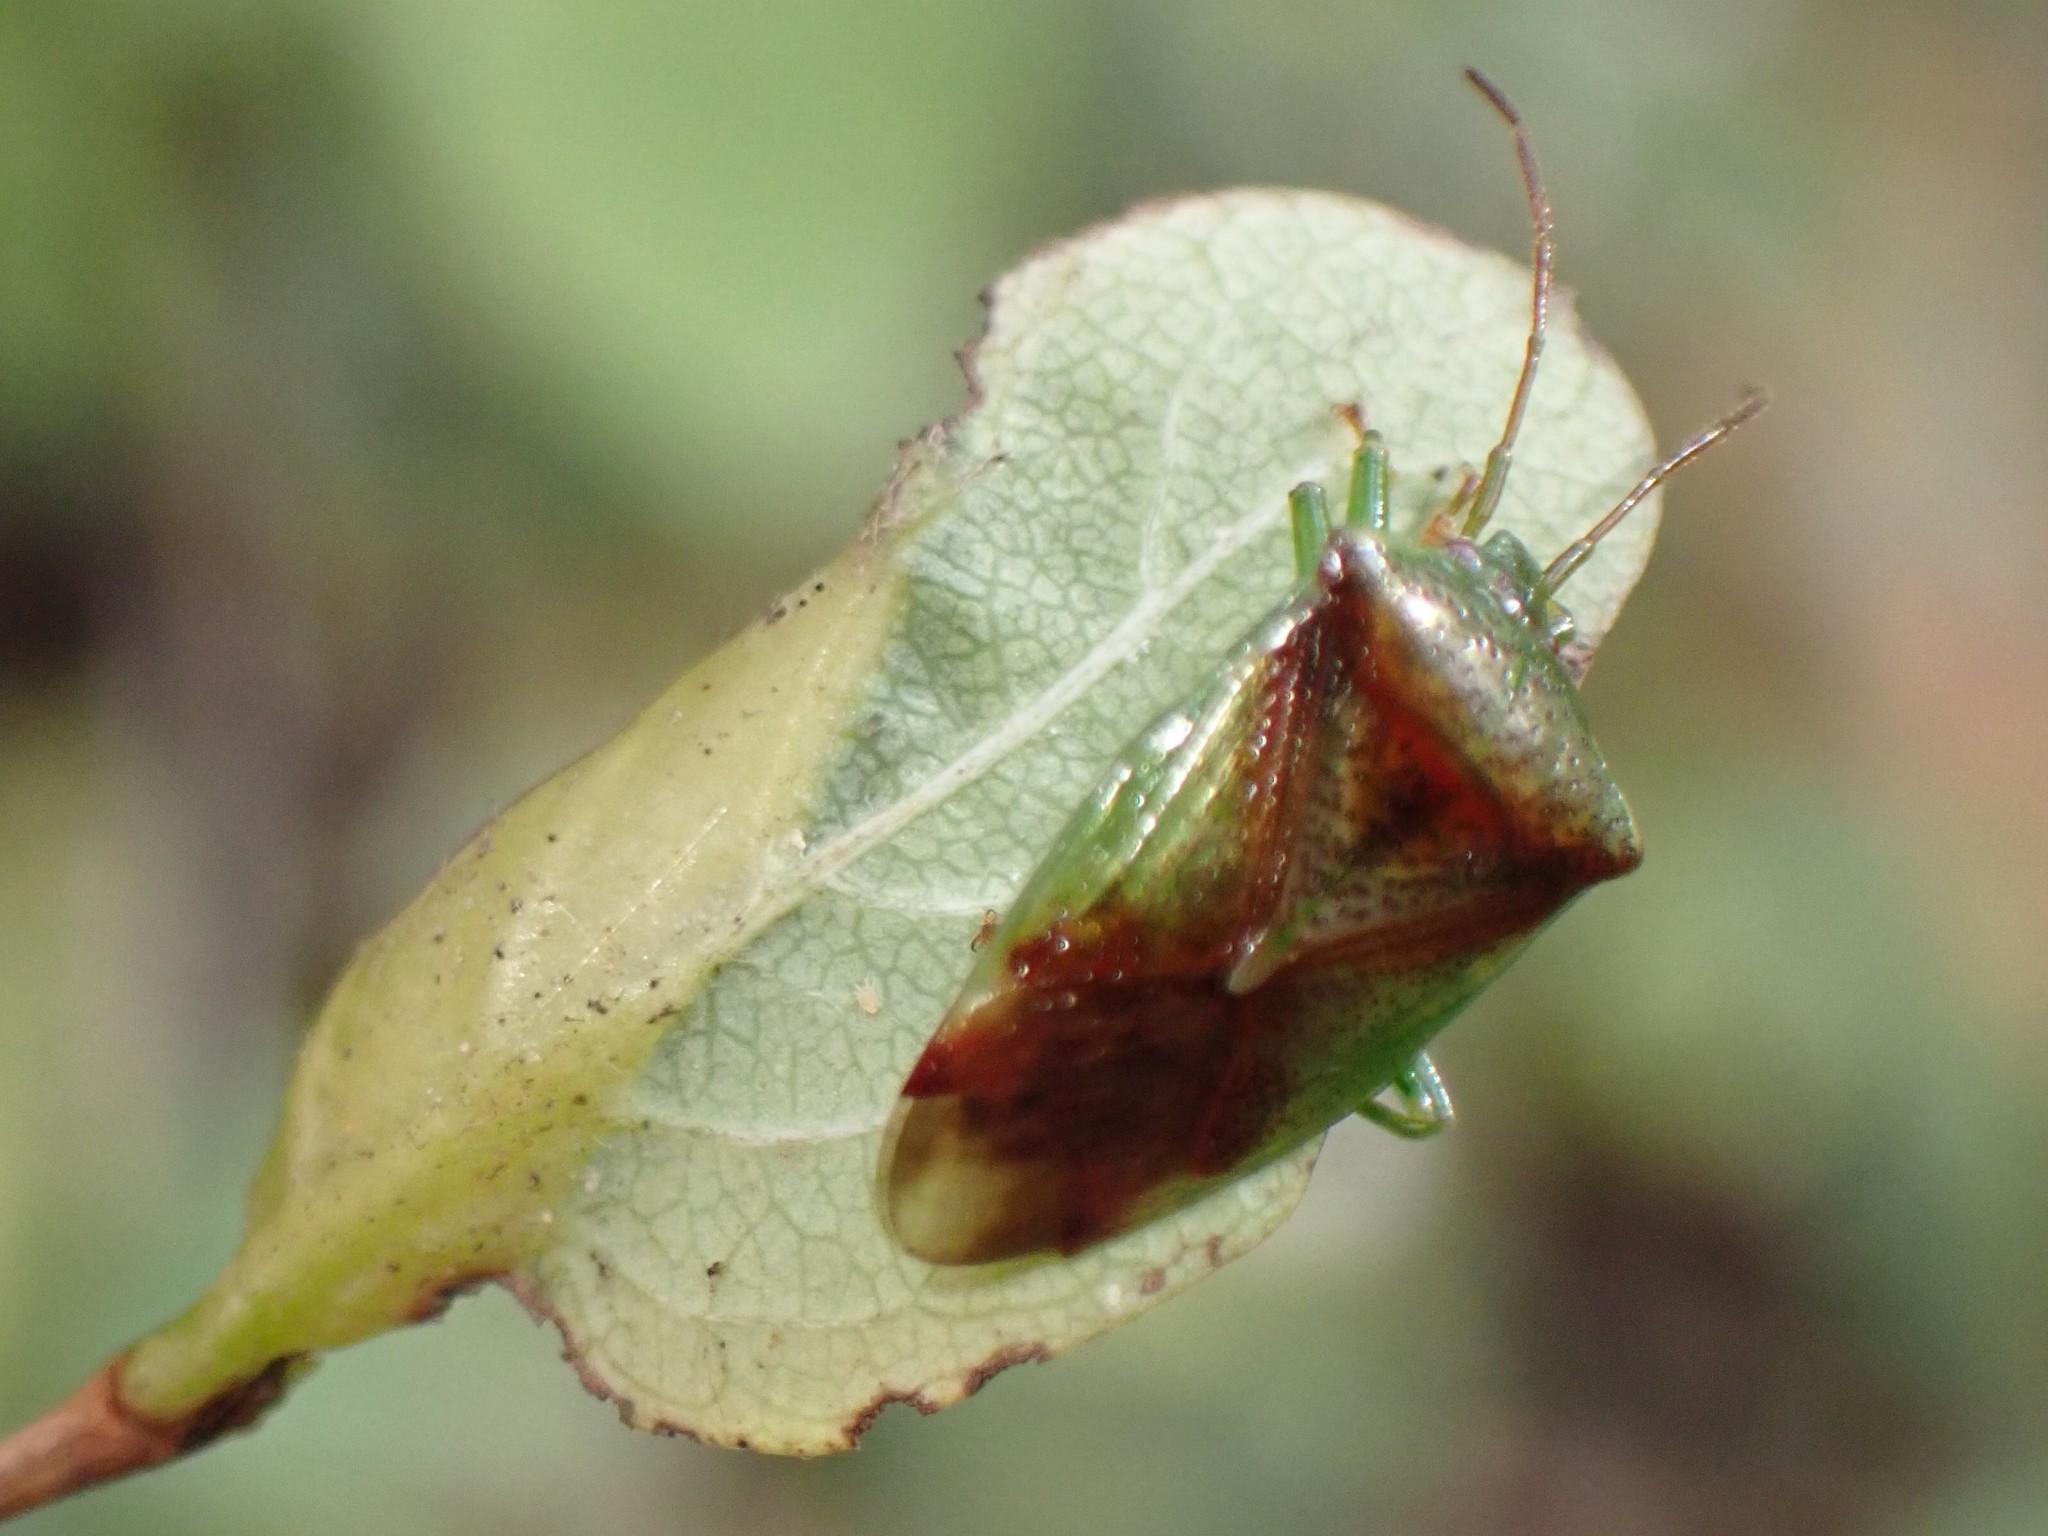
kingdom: Animalia
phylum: Arthropoda
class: Insecta
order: Hemiptera
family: Acanthosomatidae
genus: Elasmostethus
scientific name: Elasmostethus cruciatus
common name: Red-cross shield bug
